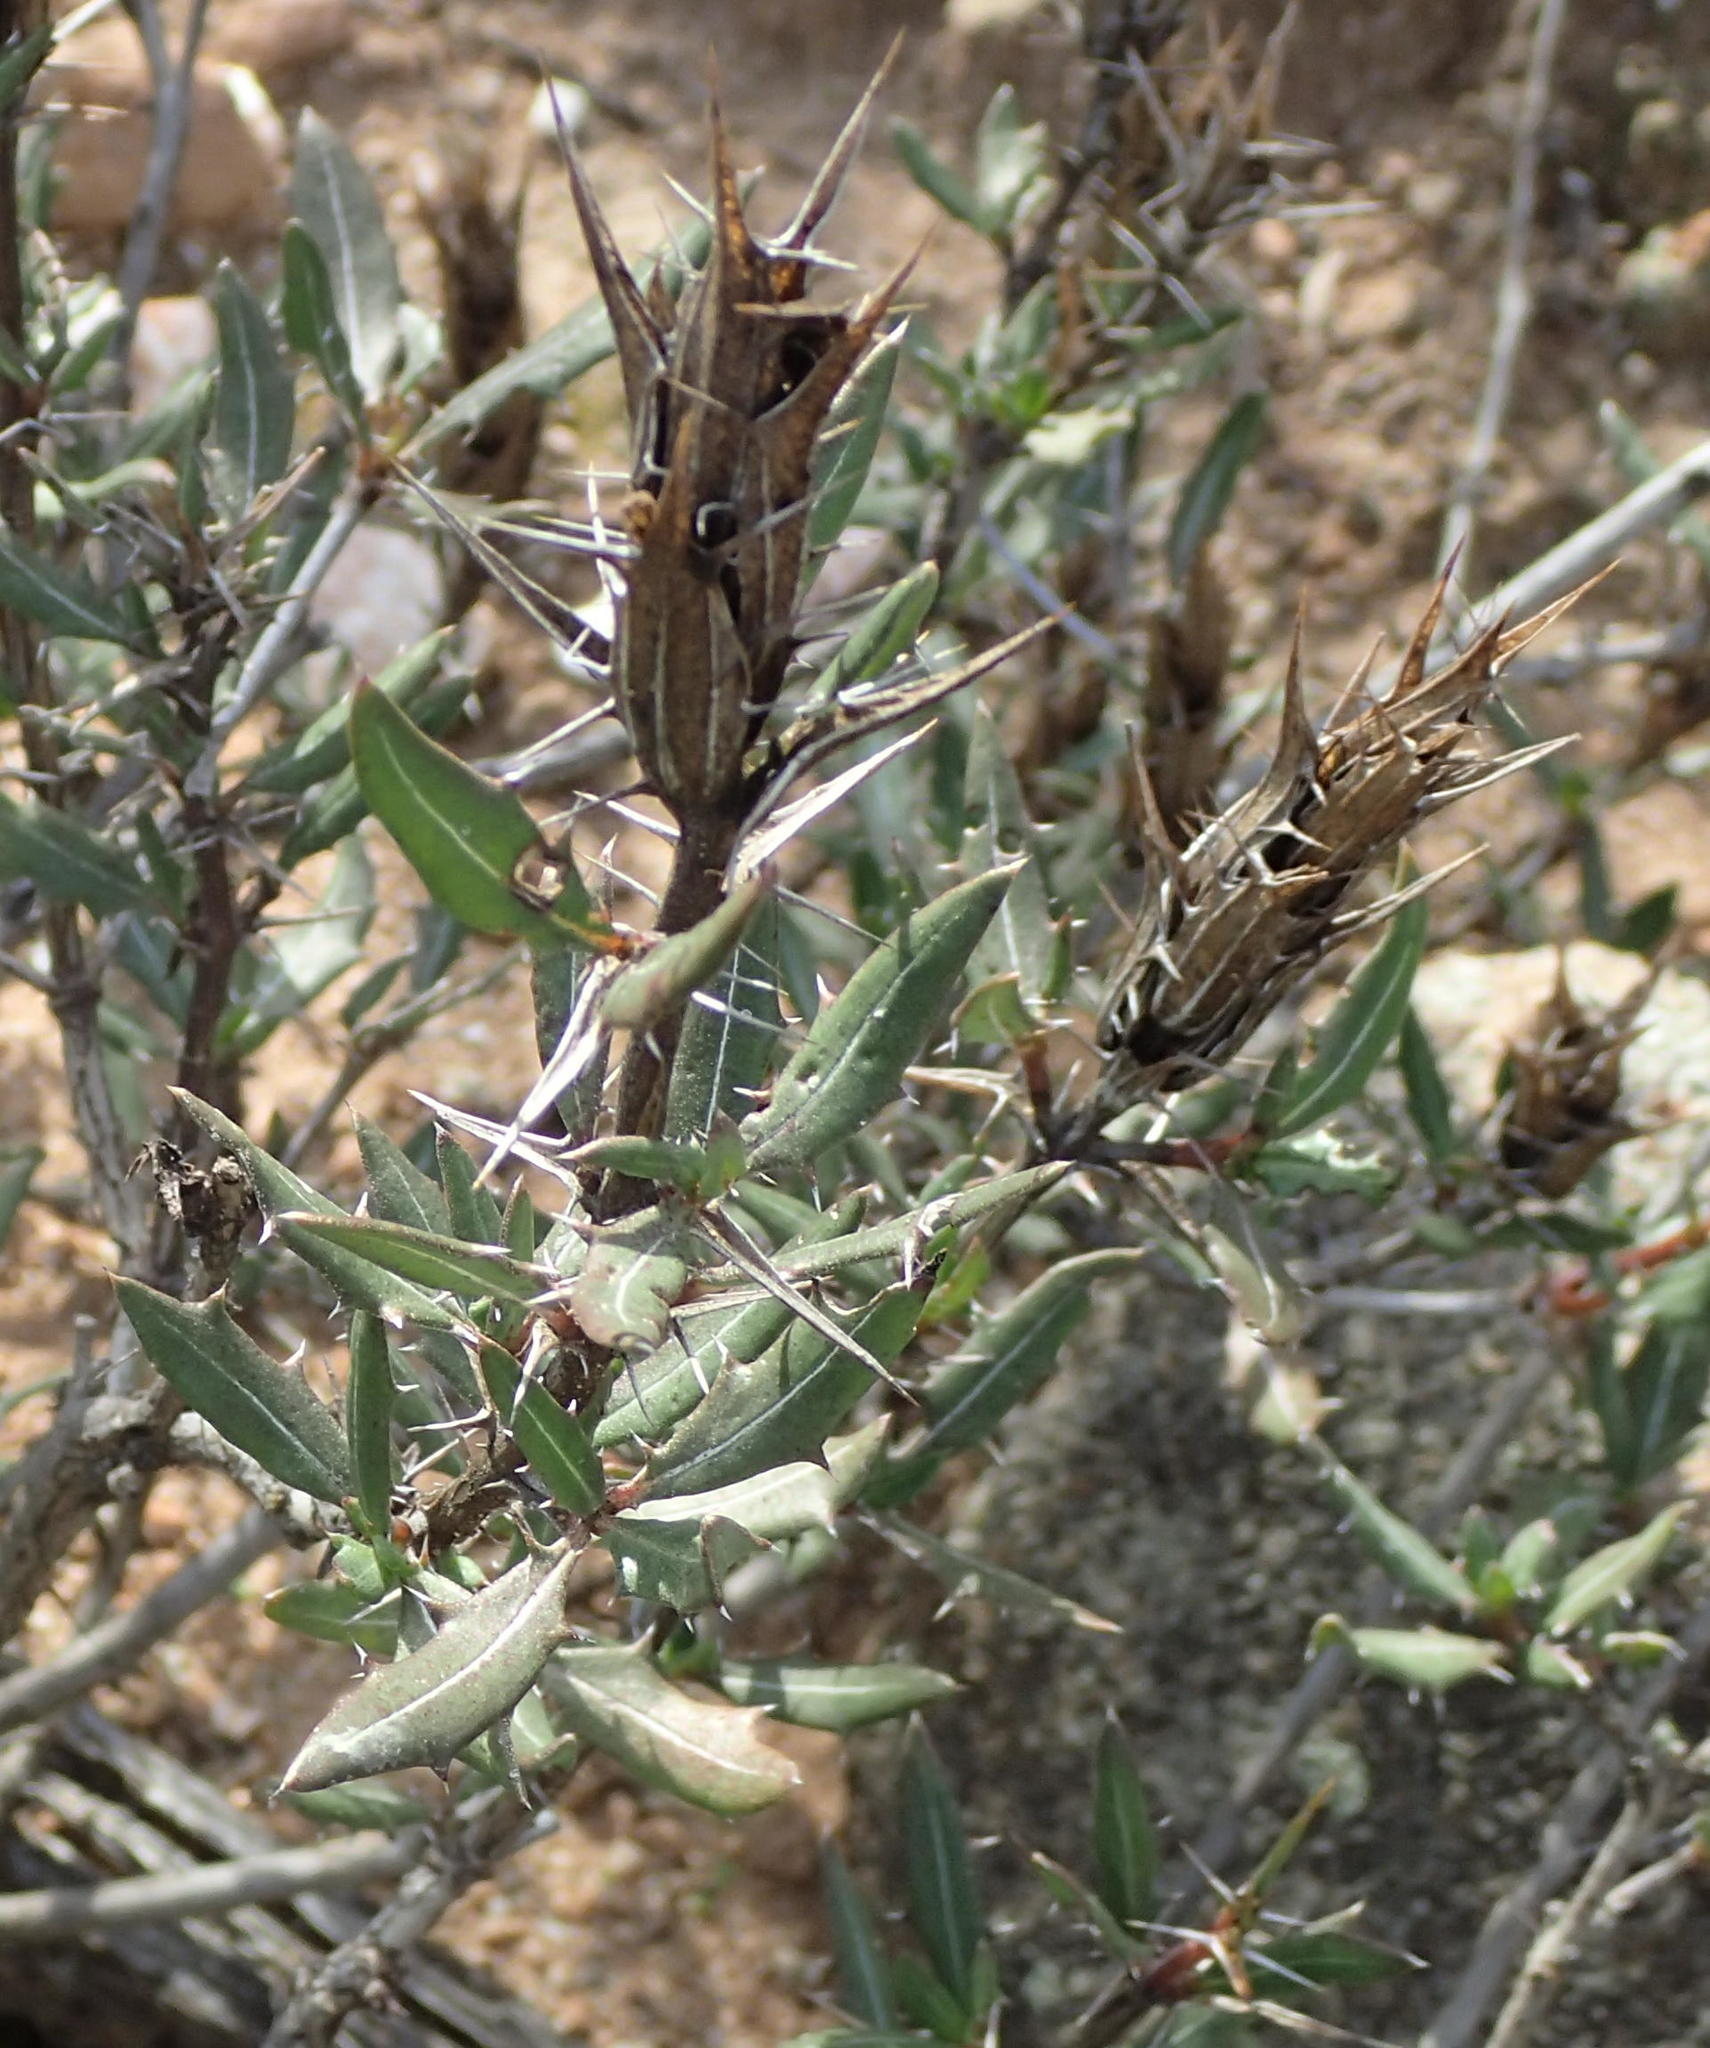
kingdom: Plantae
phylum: Tracheophyta
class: Magnoliopsida
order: Lamiales
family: Acanthaceae
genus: Blepharis
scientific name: Blepharis capensis
